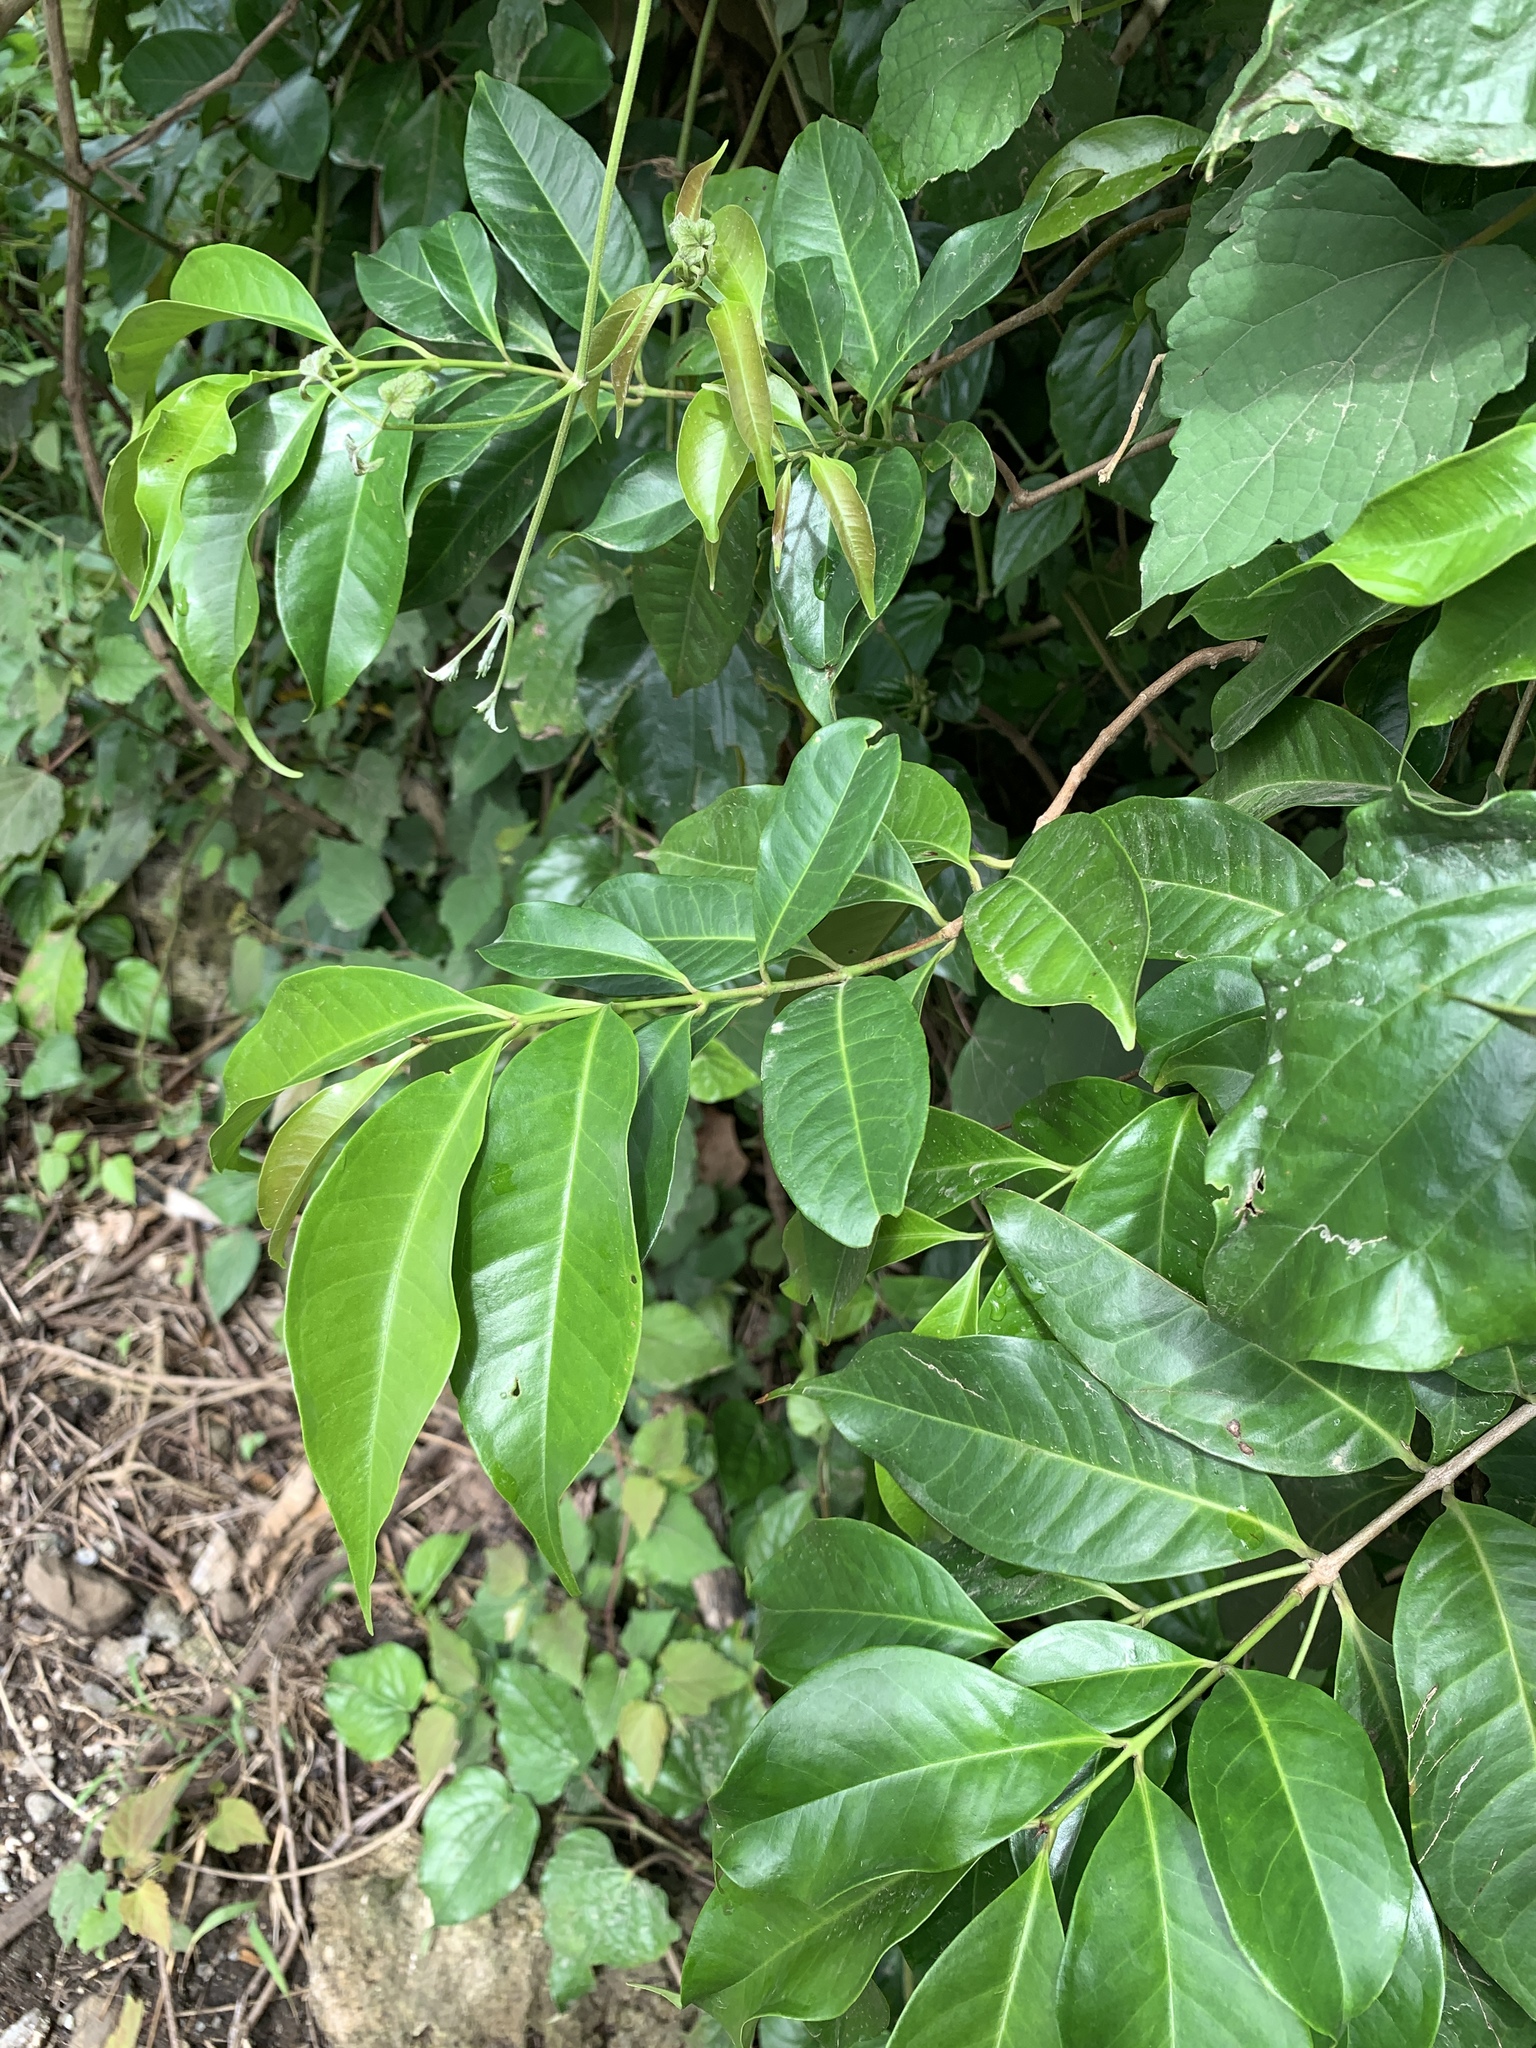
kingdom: Plantae
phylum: Tracheophyta
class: Magnoliopsida
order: Myrtales
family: Myrtaceae
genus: Syzygium
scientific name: Syzygium tripinnatum
